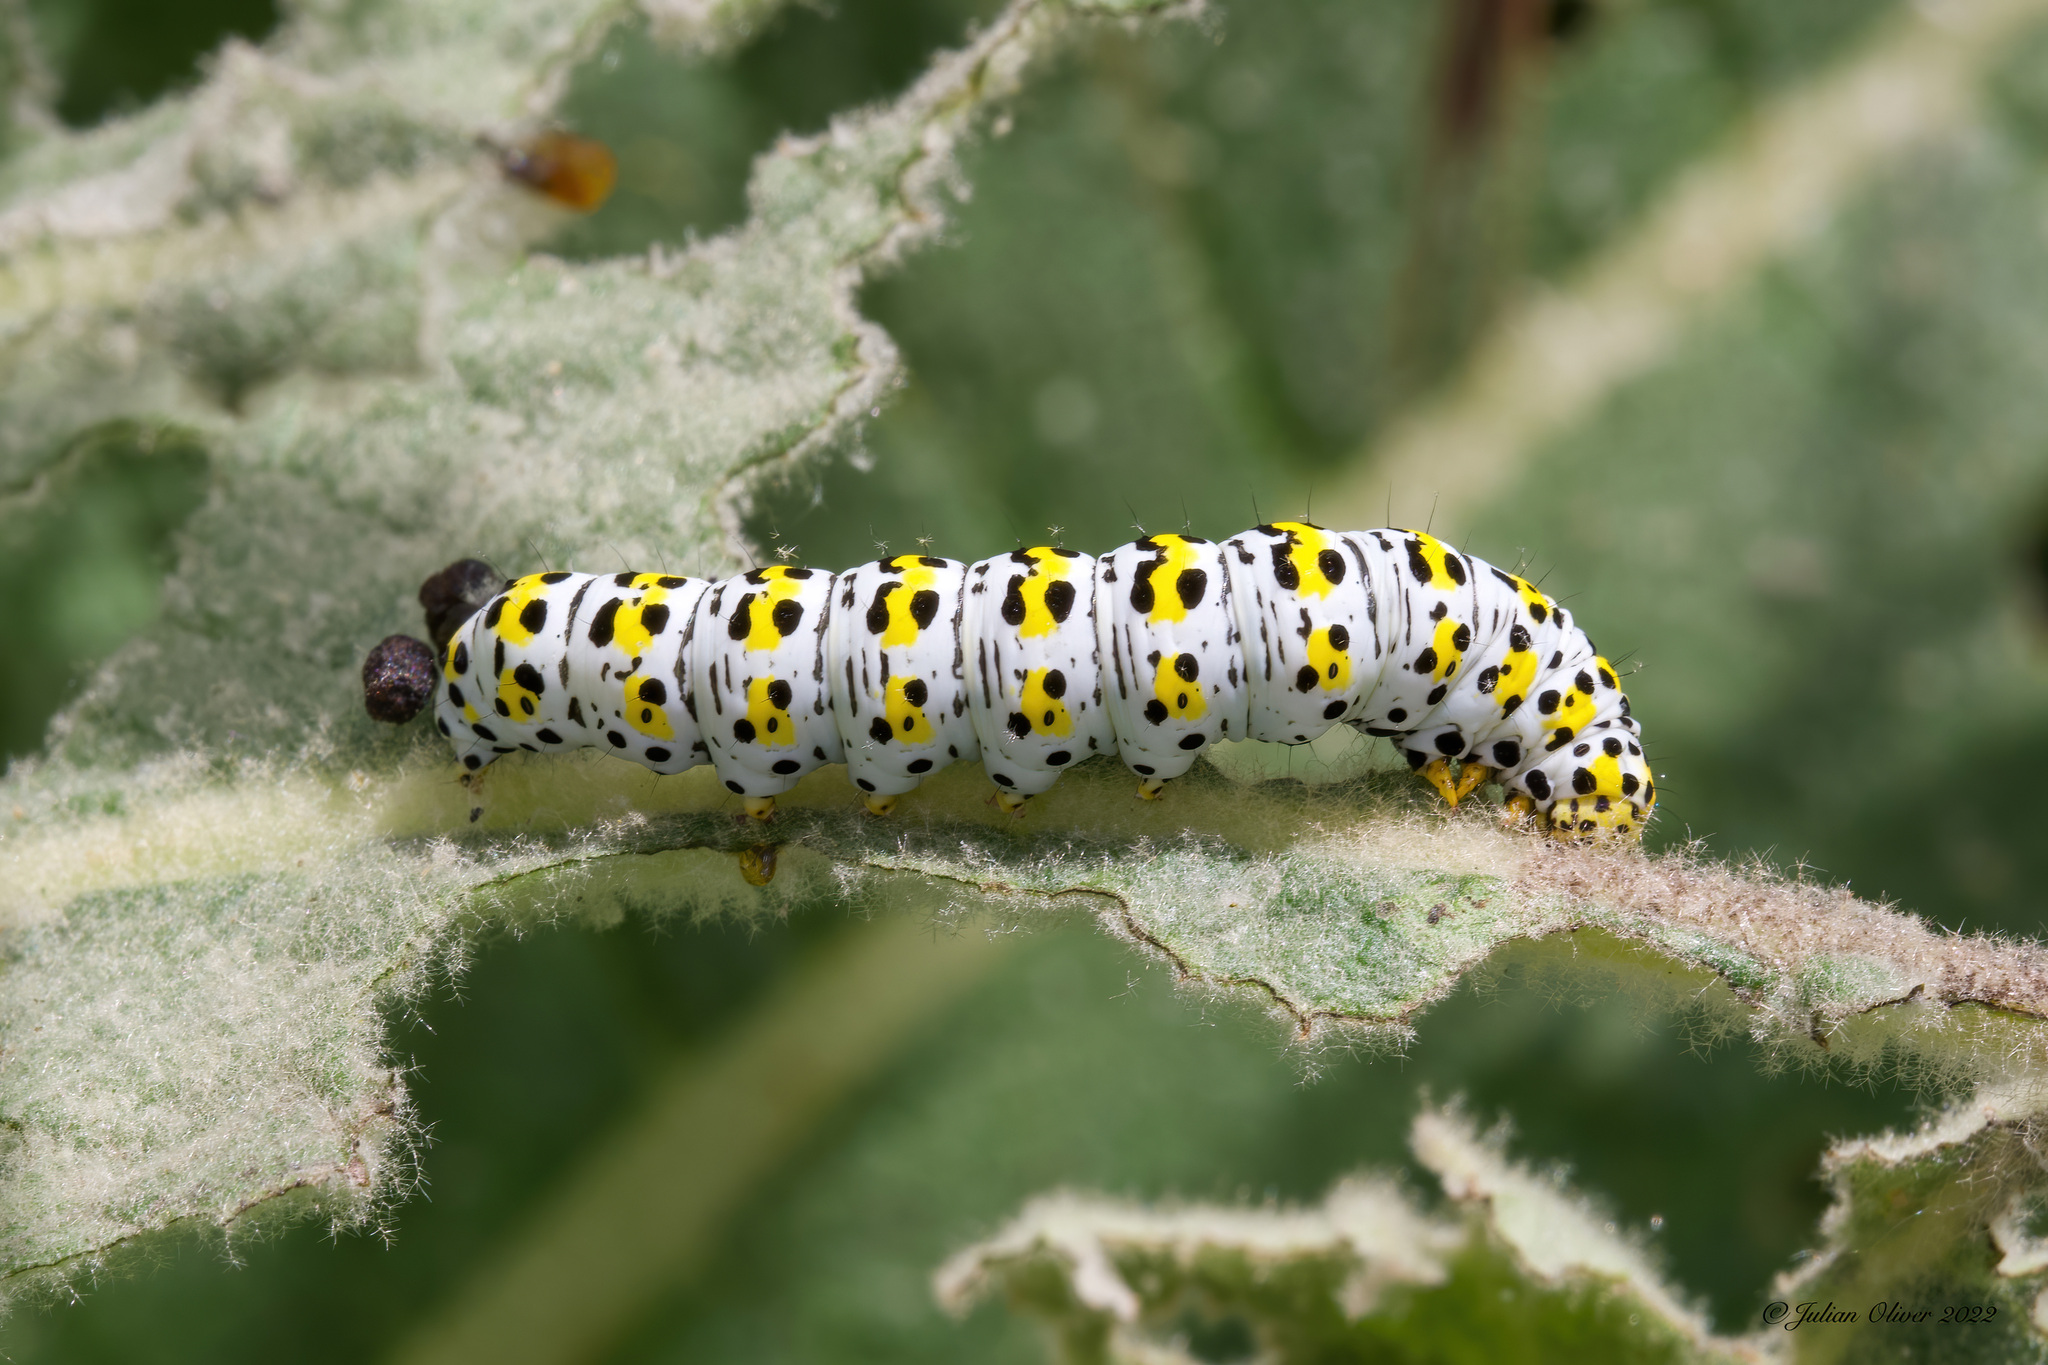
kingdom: Animalia
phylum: Arthropoda
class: Insecta
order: Lepidoptera
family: Noctuidae
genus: Cucullia
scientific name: Cucullia verbasci
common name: Mullein
